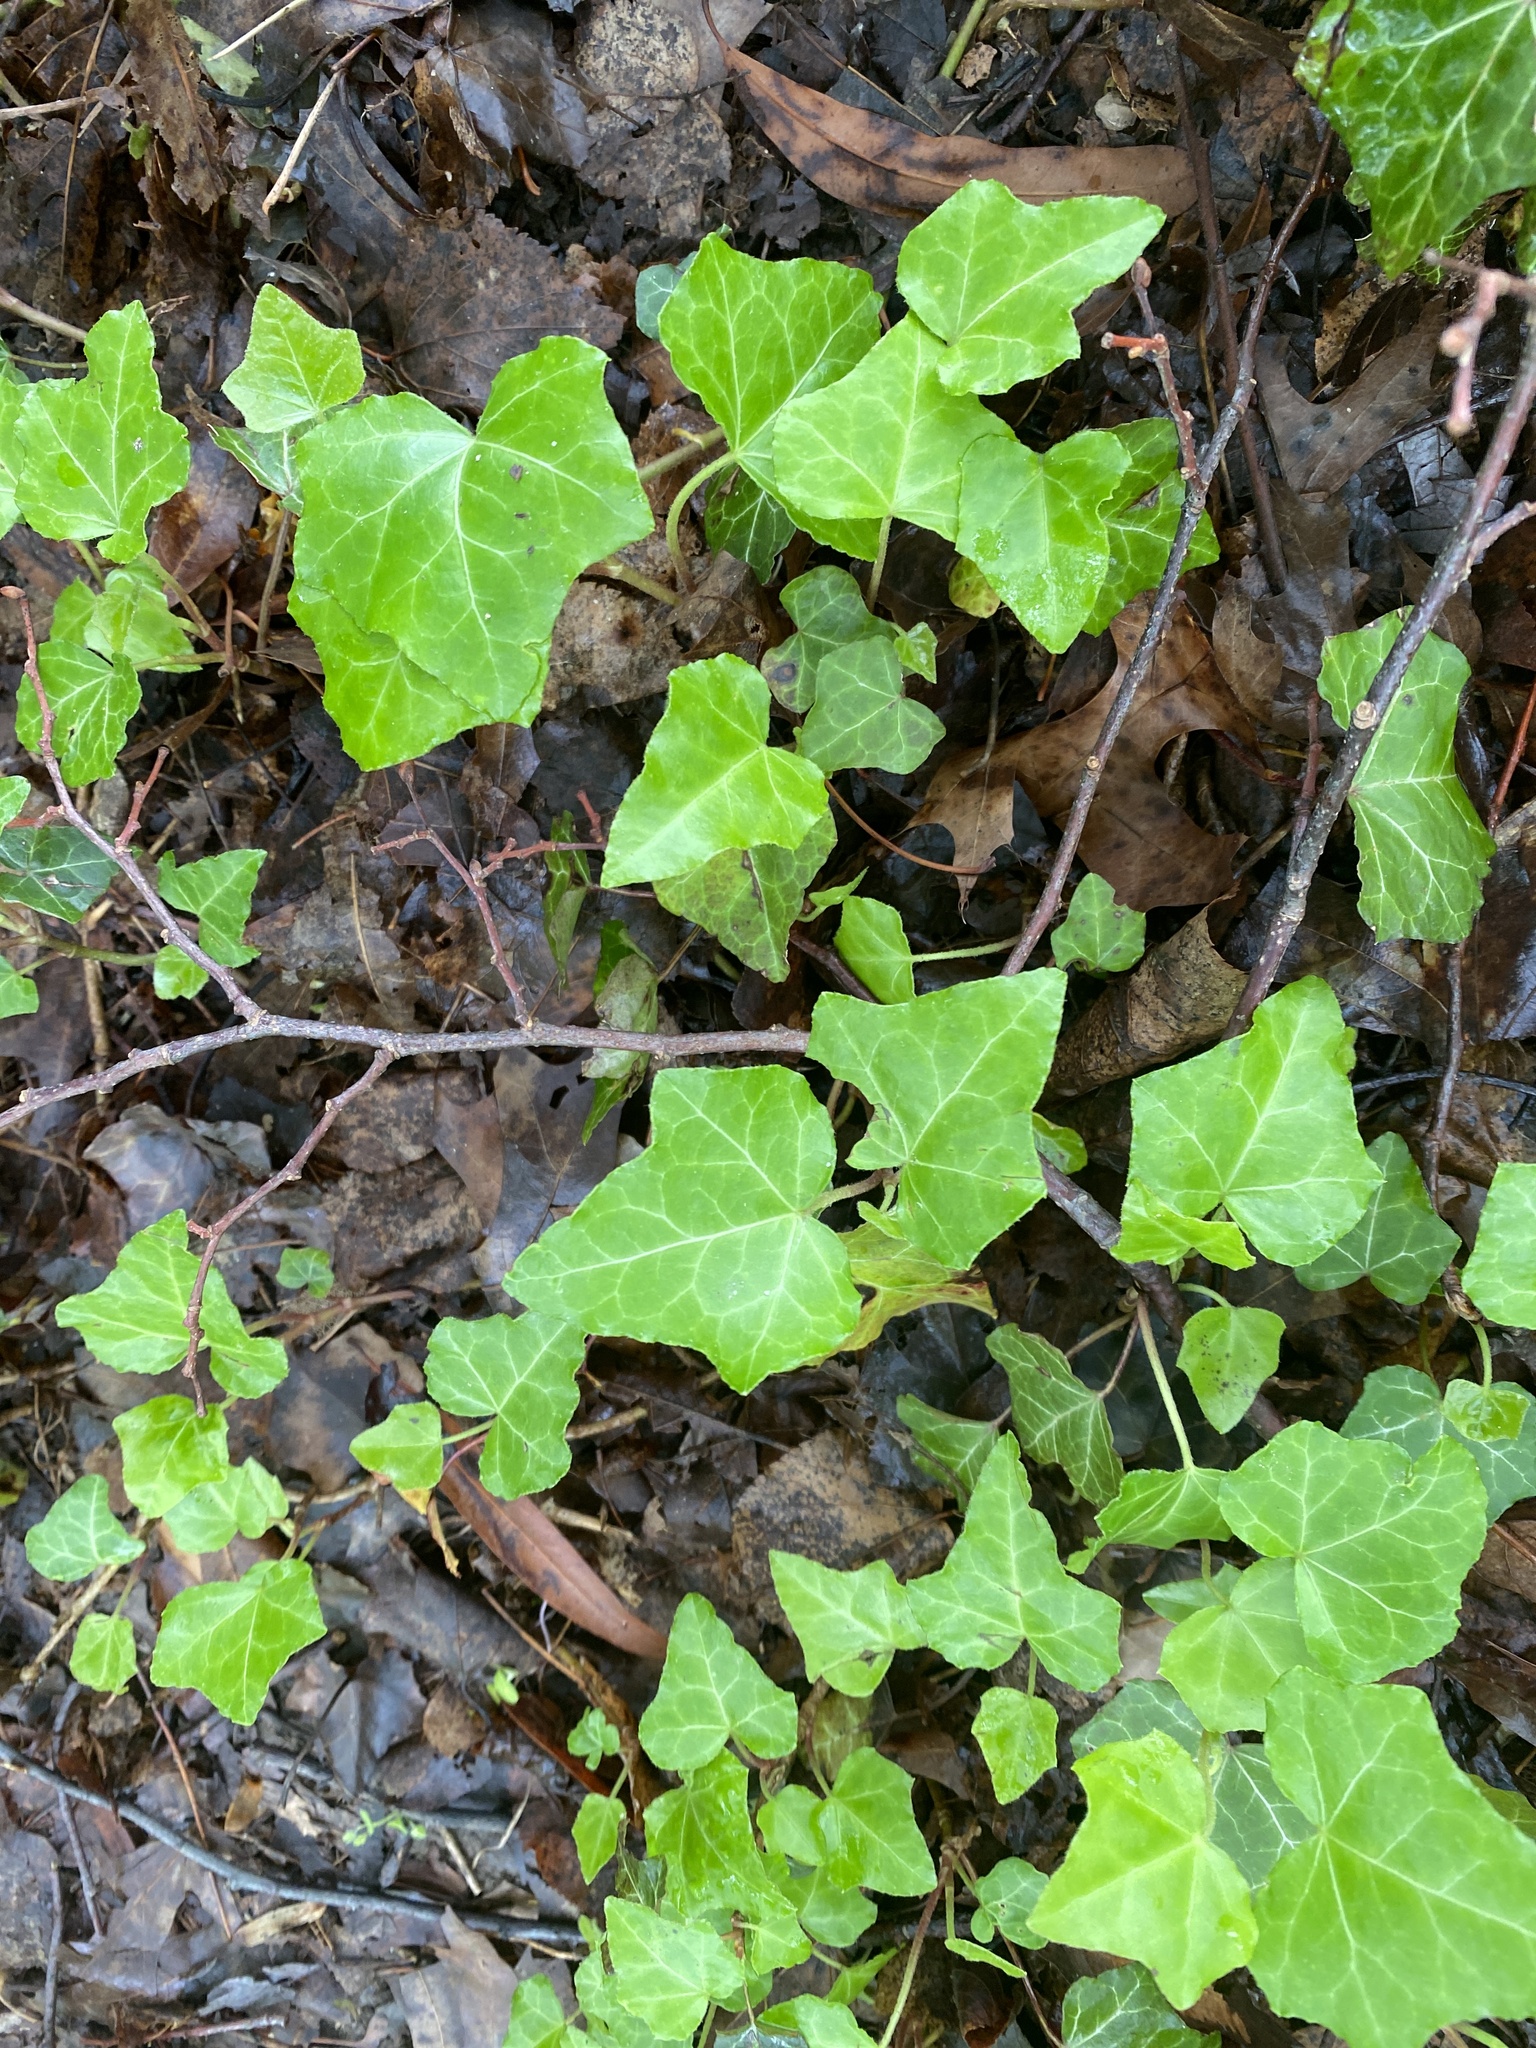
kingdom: Plantae
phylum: Tracheophyta
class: Magnoliopsida
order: Apiales
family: Araliaceae
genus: Hedera
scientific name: Hedera helix
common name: Ivy
